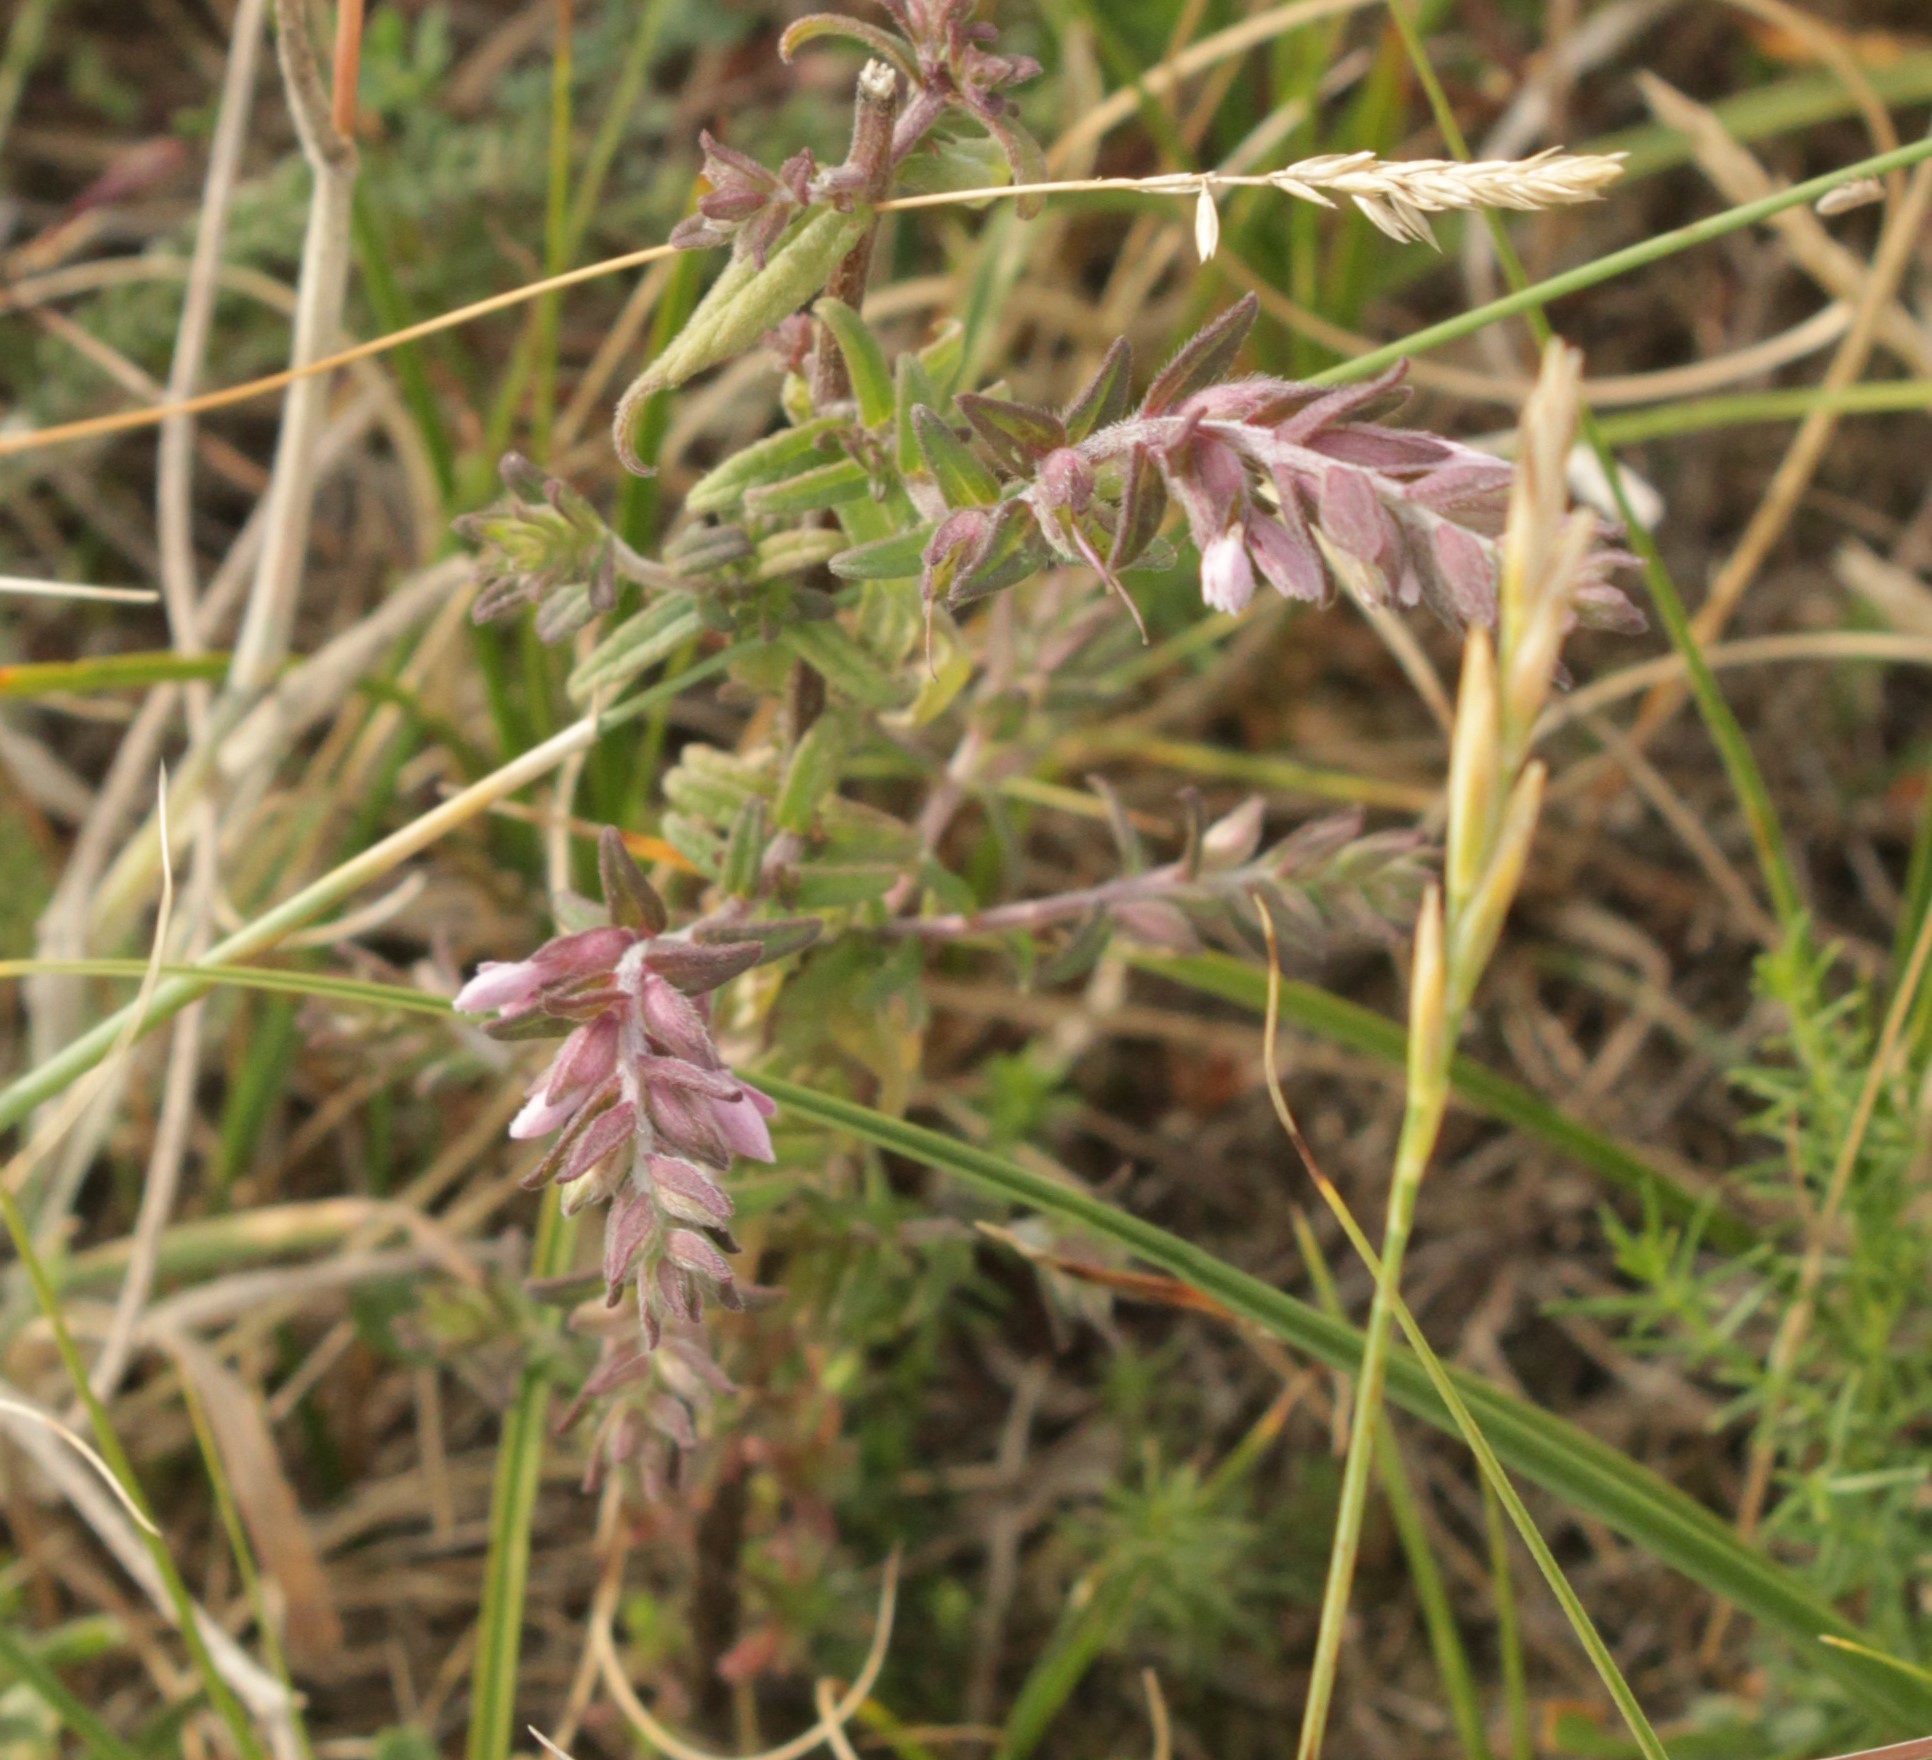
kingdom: Plantae
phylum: Tracheophyta
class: Magnoliopsida
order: Lamiales
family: Orobanchaceae
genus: Odontites
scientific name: Odontites vernus
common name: Red bartsia
